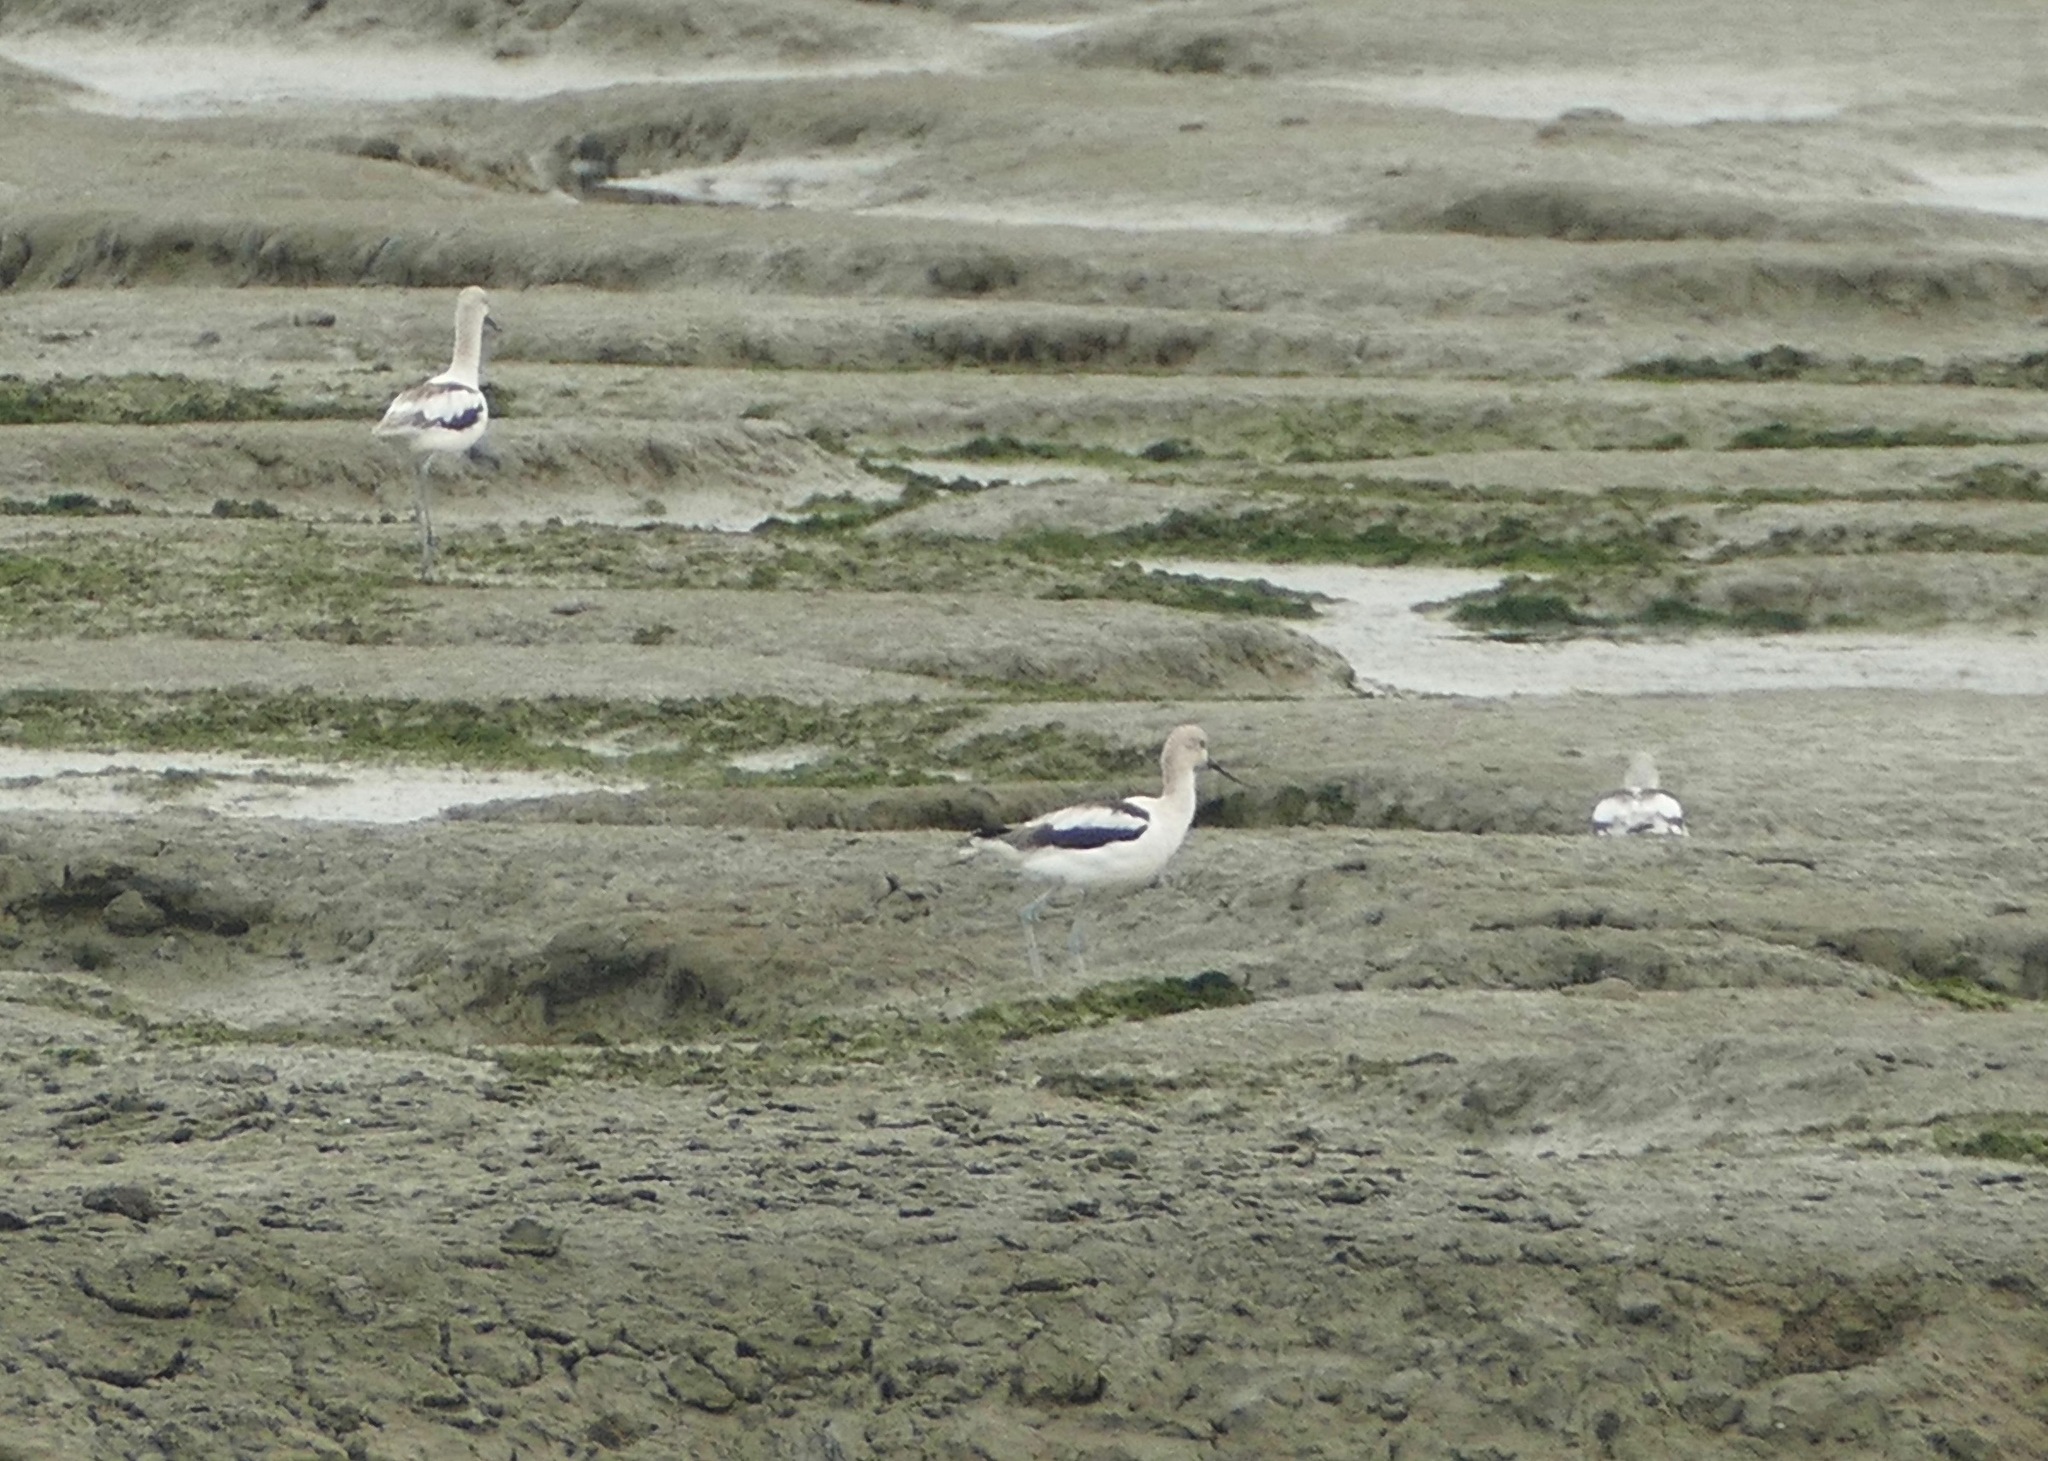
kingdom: Animalia
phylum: Chordata
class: Aves
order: Charadriiformes
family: Recurvirostridae
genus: Recurvirostra
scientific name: Recurvirostra americana
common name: American avocet
